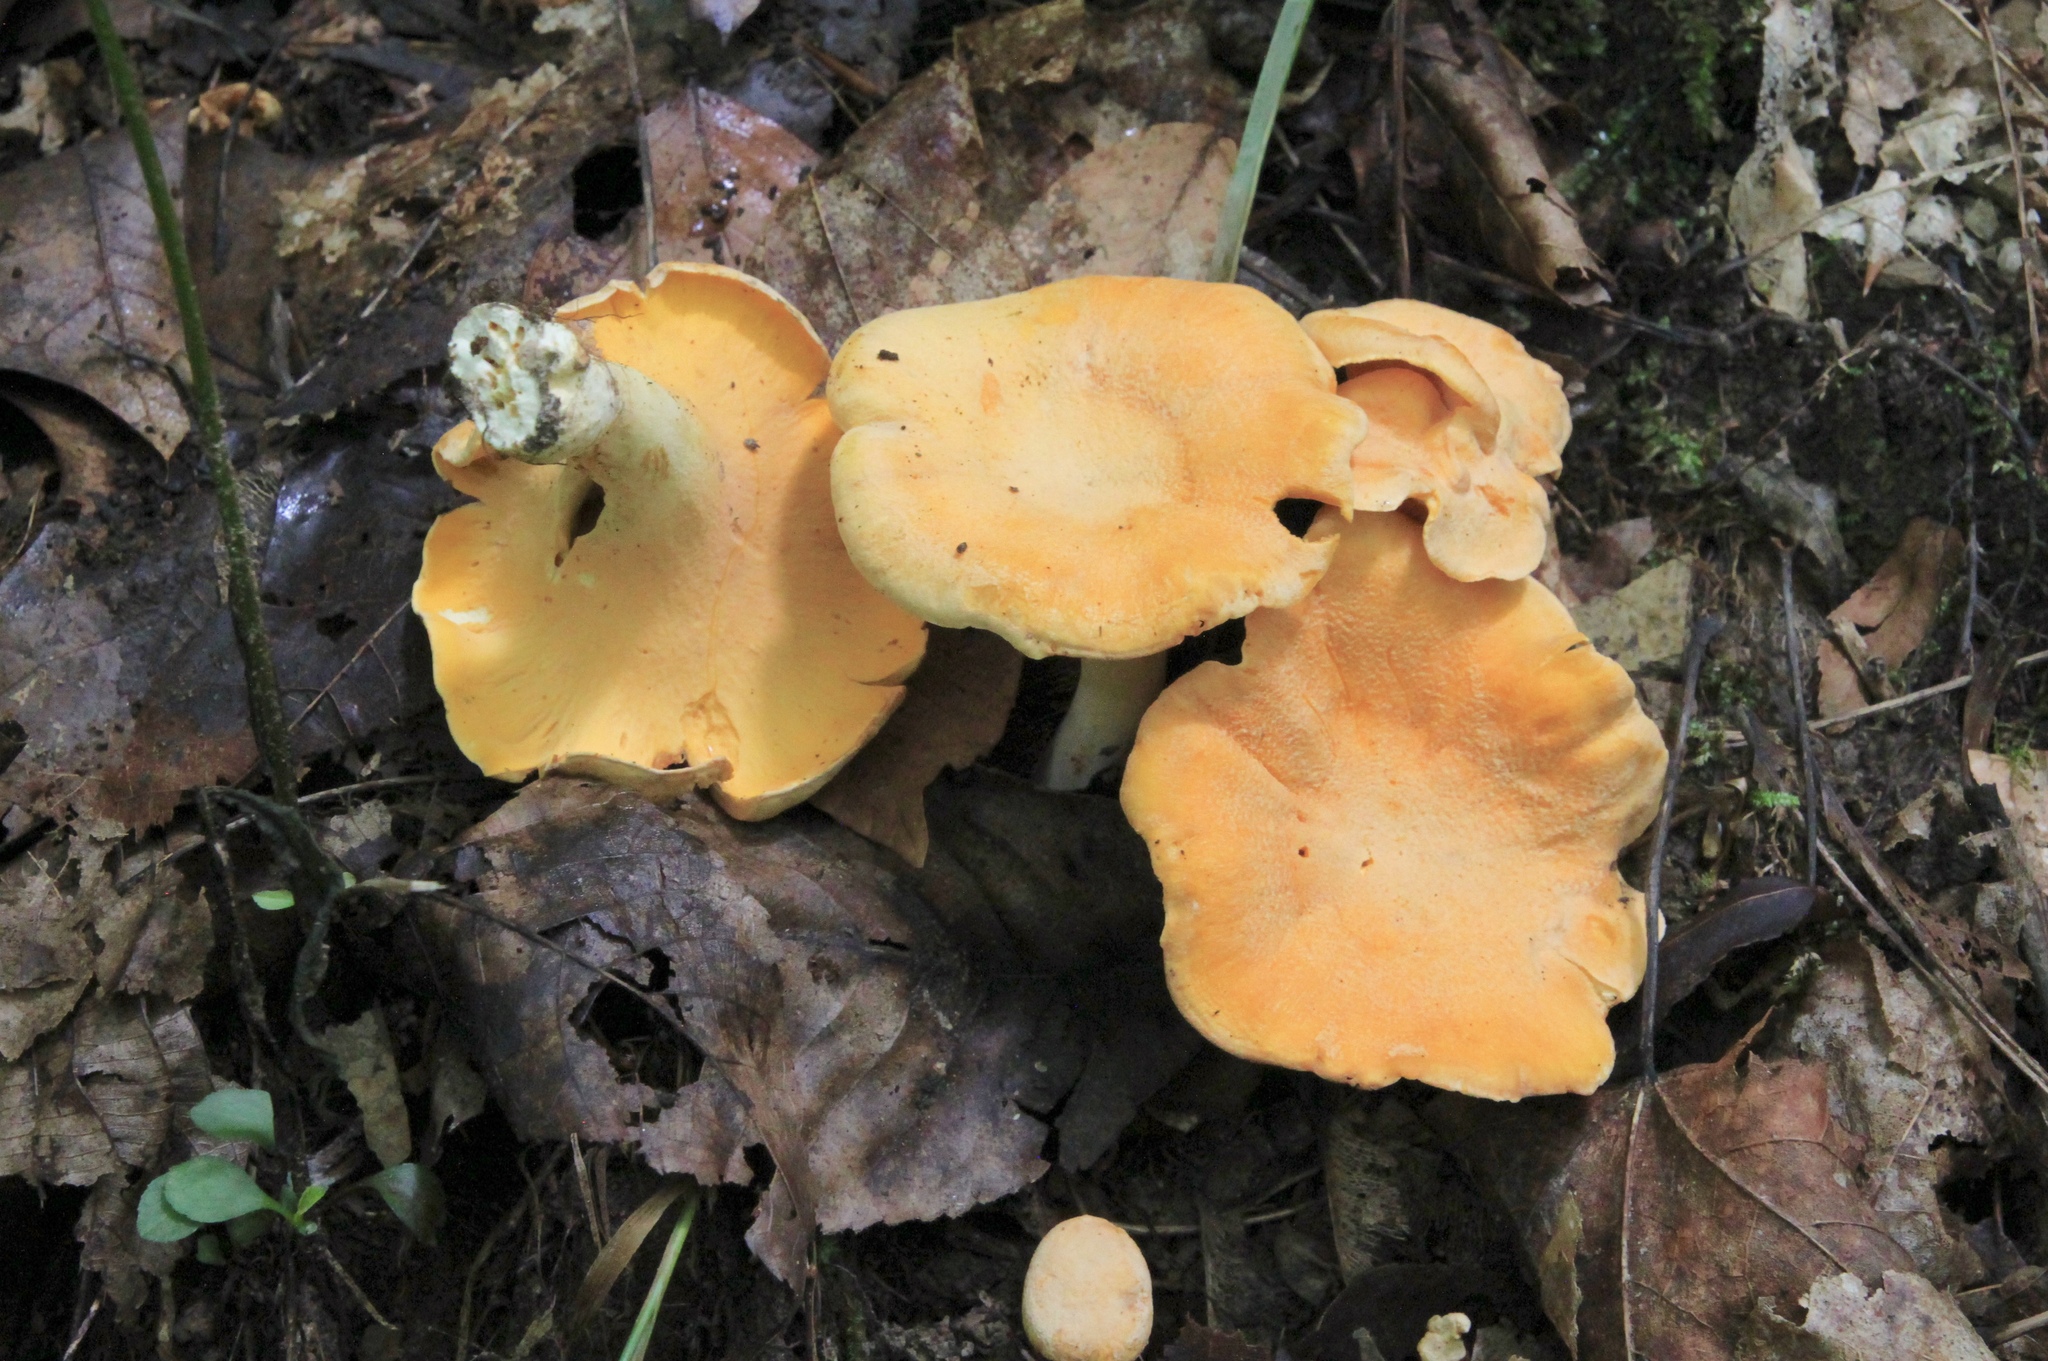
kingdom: Fungi
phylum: Basidiomycota
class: Agaricomycetes
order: Cantharellales
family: Hydnaceae
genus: Cantharellus
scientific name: Cantharellus lateritius
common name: Smooth chanterelle
